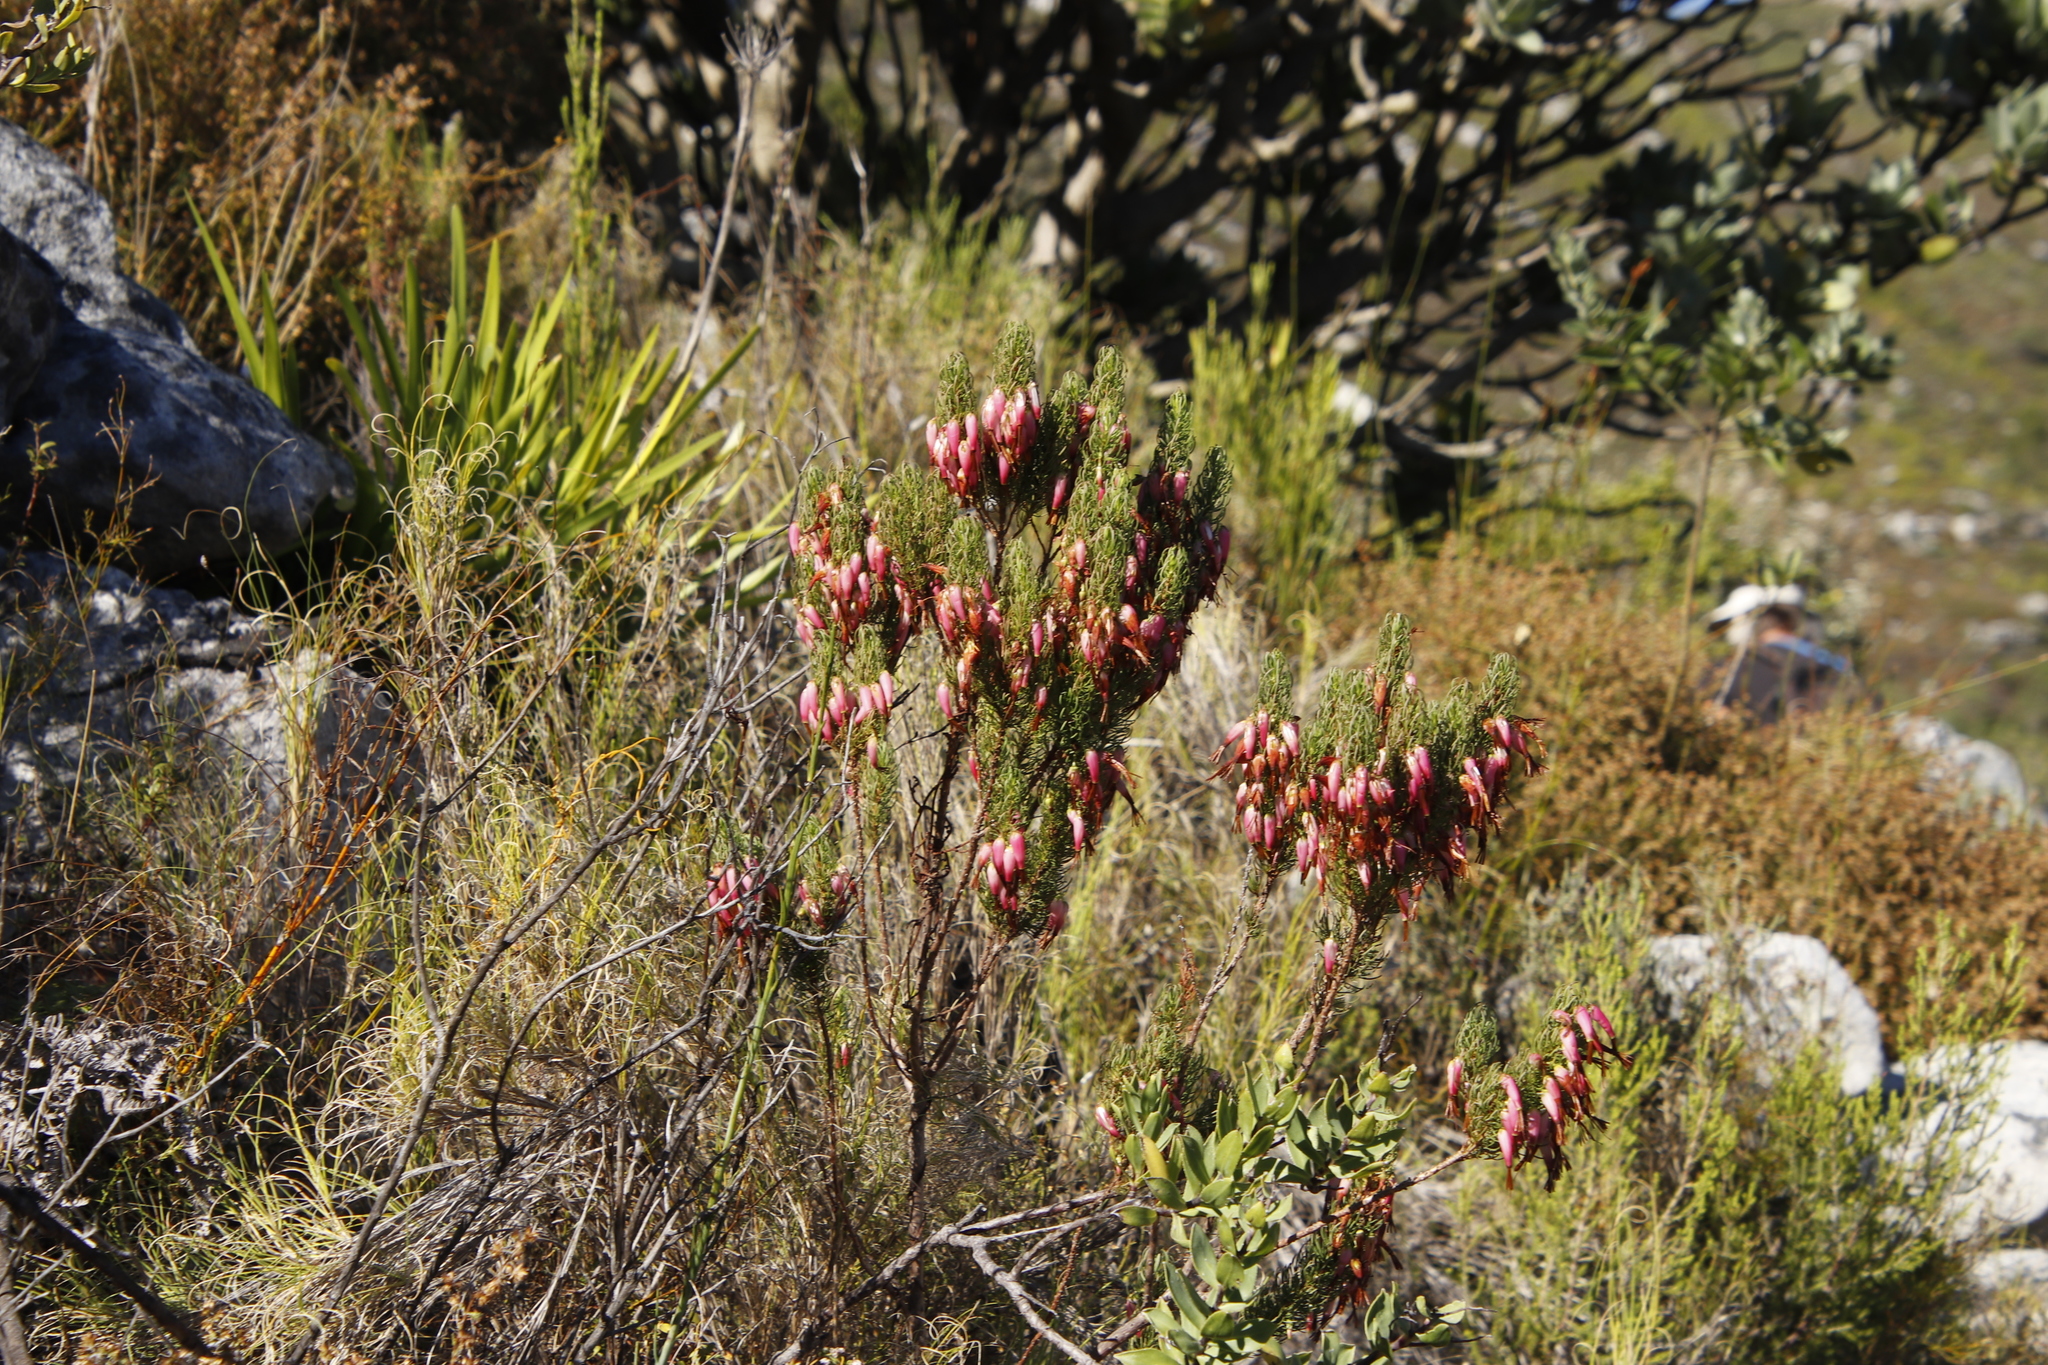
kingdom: Plantae
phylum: Tracheophyta
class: Magnoliopsida
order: Ericales
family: Ericaceae
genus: Erica
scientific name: Erica plukenetii
